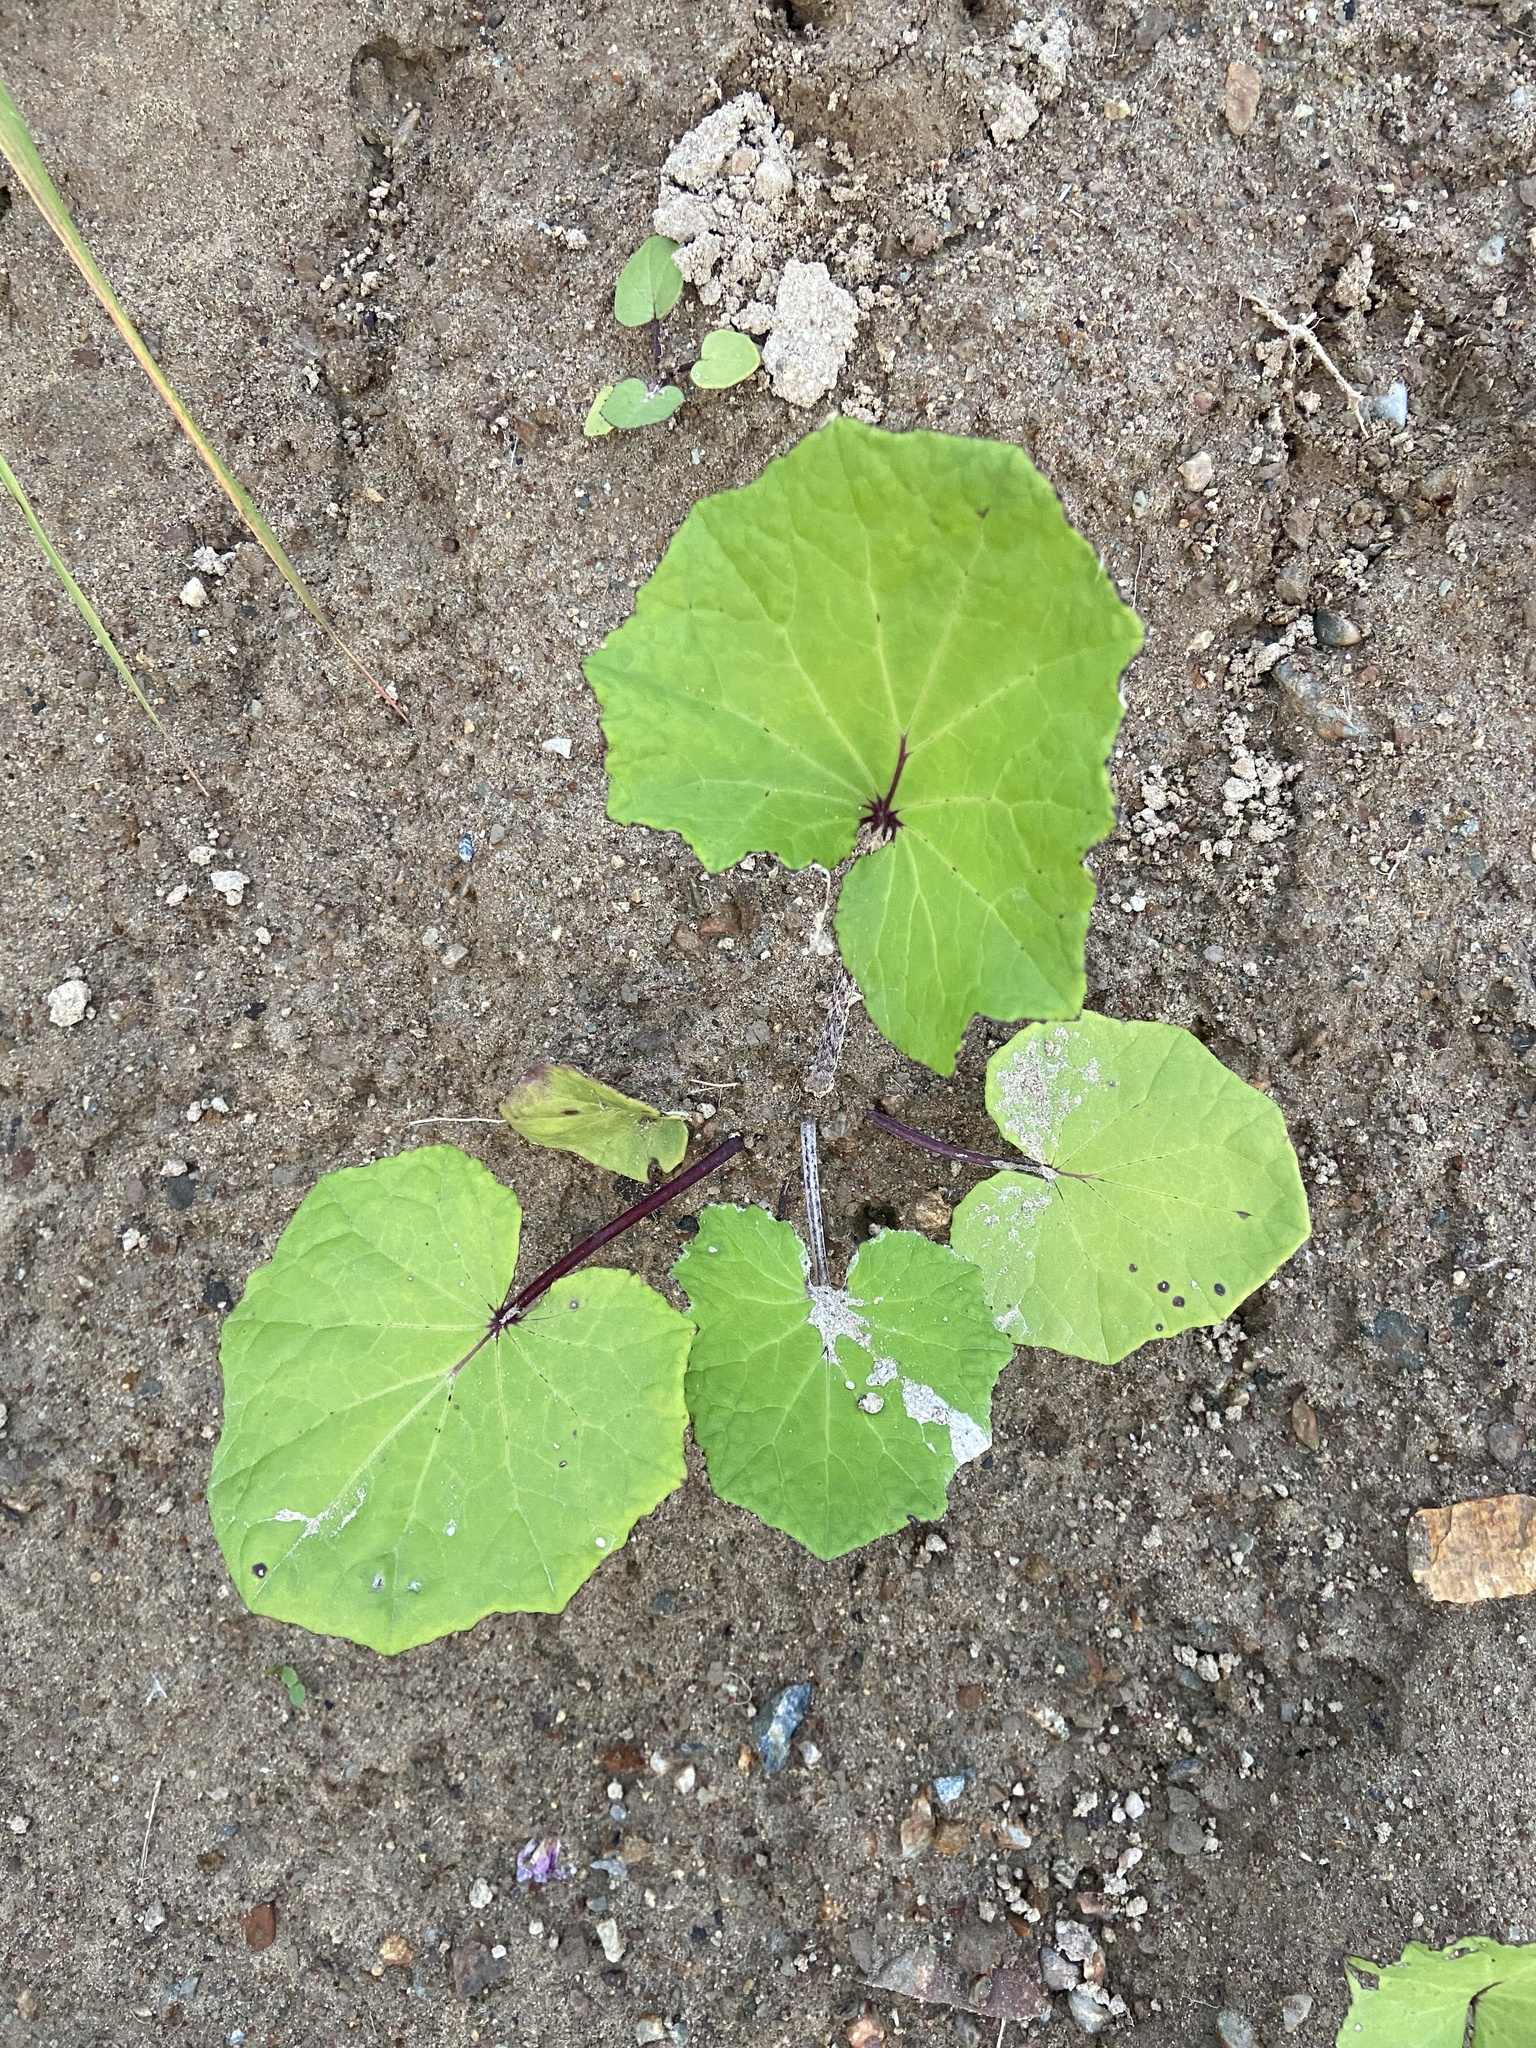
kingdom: Plantae
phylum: Tracheophyta
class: Magnoliopsida
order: Asterales
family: Asteraceae
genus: Tussilago
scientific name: Tussilago farfara
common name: Coltsfoot
